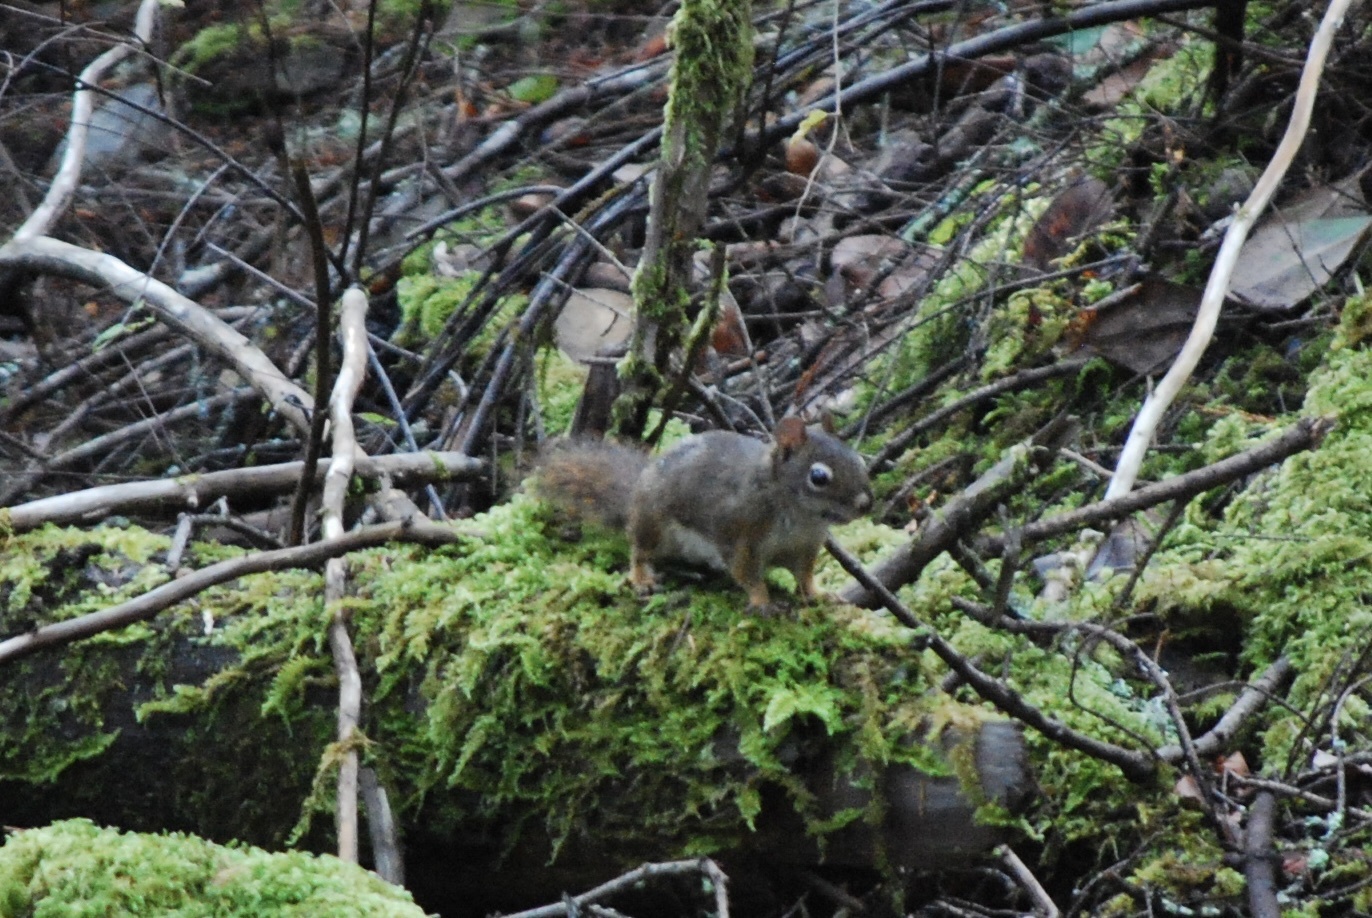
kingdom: Animalia
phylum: Chordata
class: Mammalia
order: Rodentia
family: Sciuridae
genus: Tamiasciurus
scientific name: Tamiasciurus hudsonicus
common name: Red squirrel
